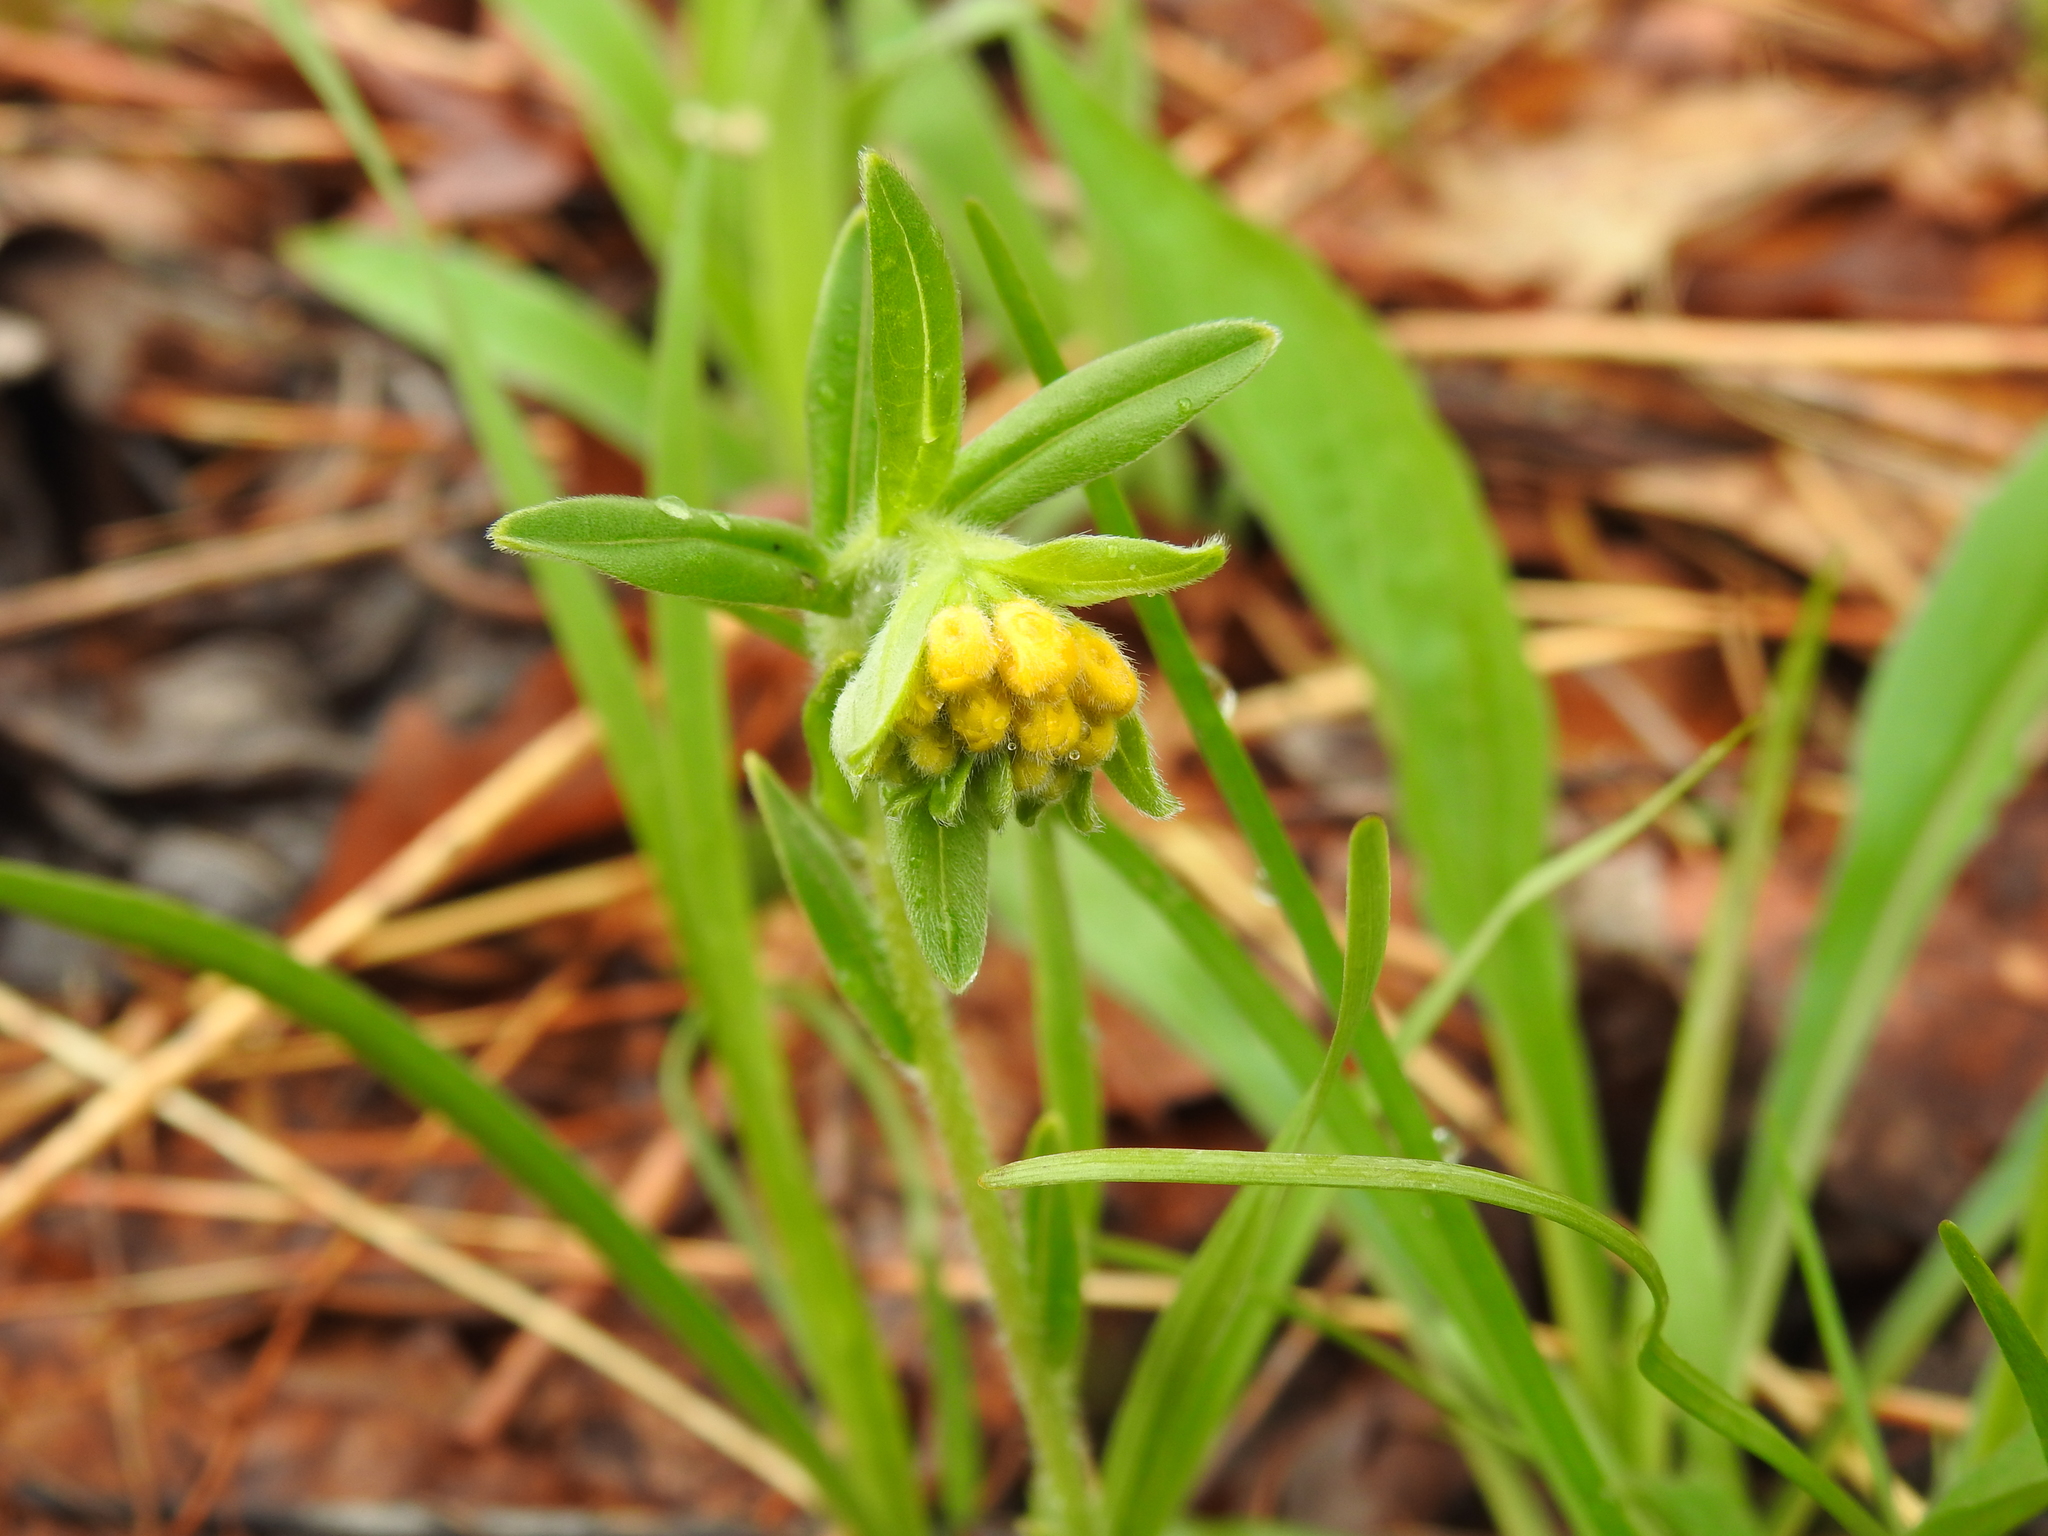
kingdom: Plantae
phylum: Tracheophyta
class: Magnoliopsida
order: Boraginales
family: Boraginaceae
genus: Lithospermum
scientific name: Lithospermum canescens
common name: Hoary puccoon
